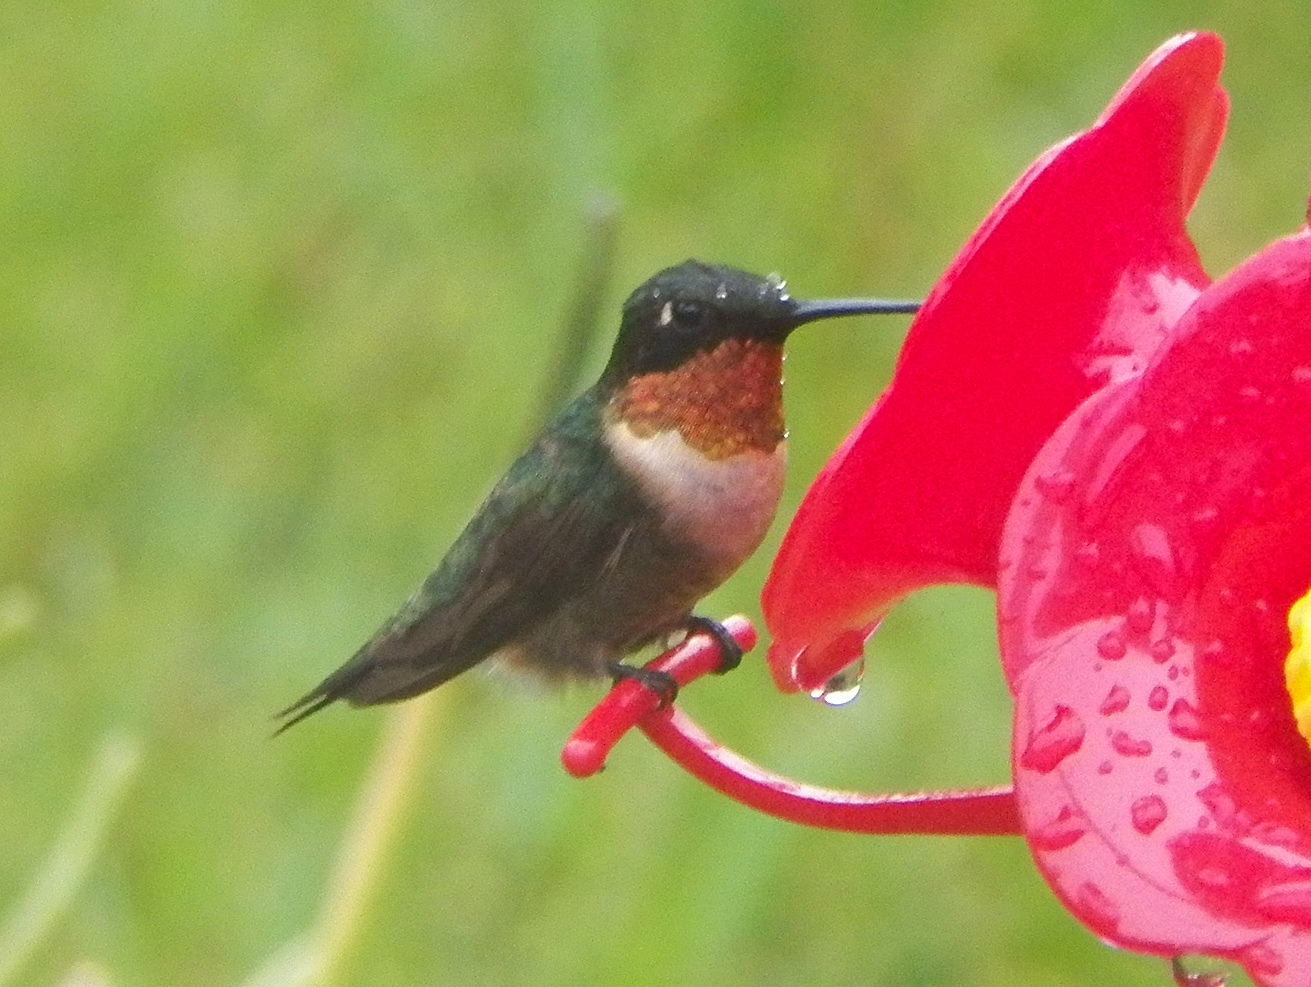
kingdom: Animalia
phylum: Chordata
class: Aves
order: Apodiformes
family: Trochilidae
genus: Archilochus
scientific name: Archilochus colubris
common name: Ruby-throated hummingbird
